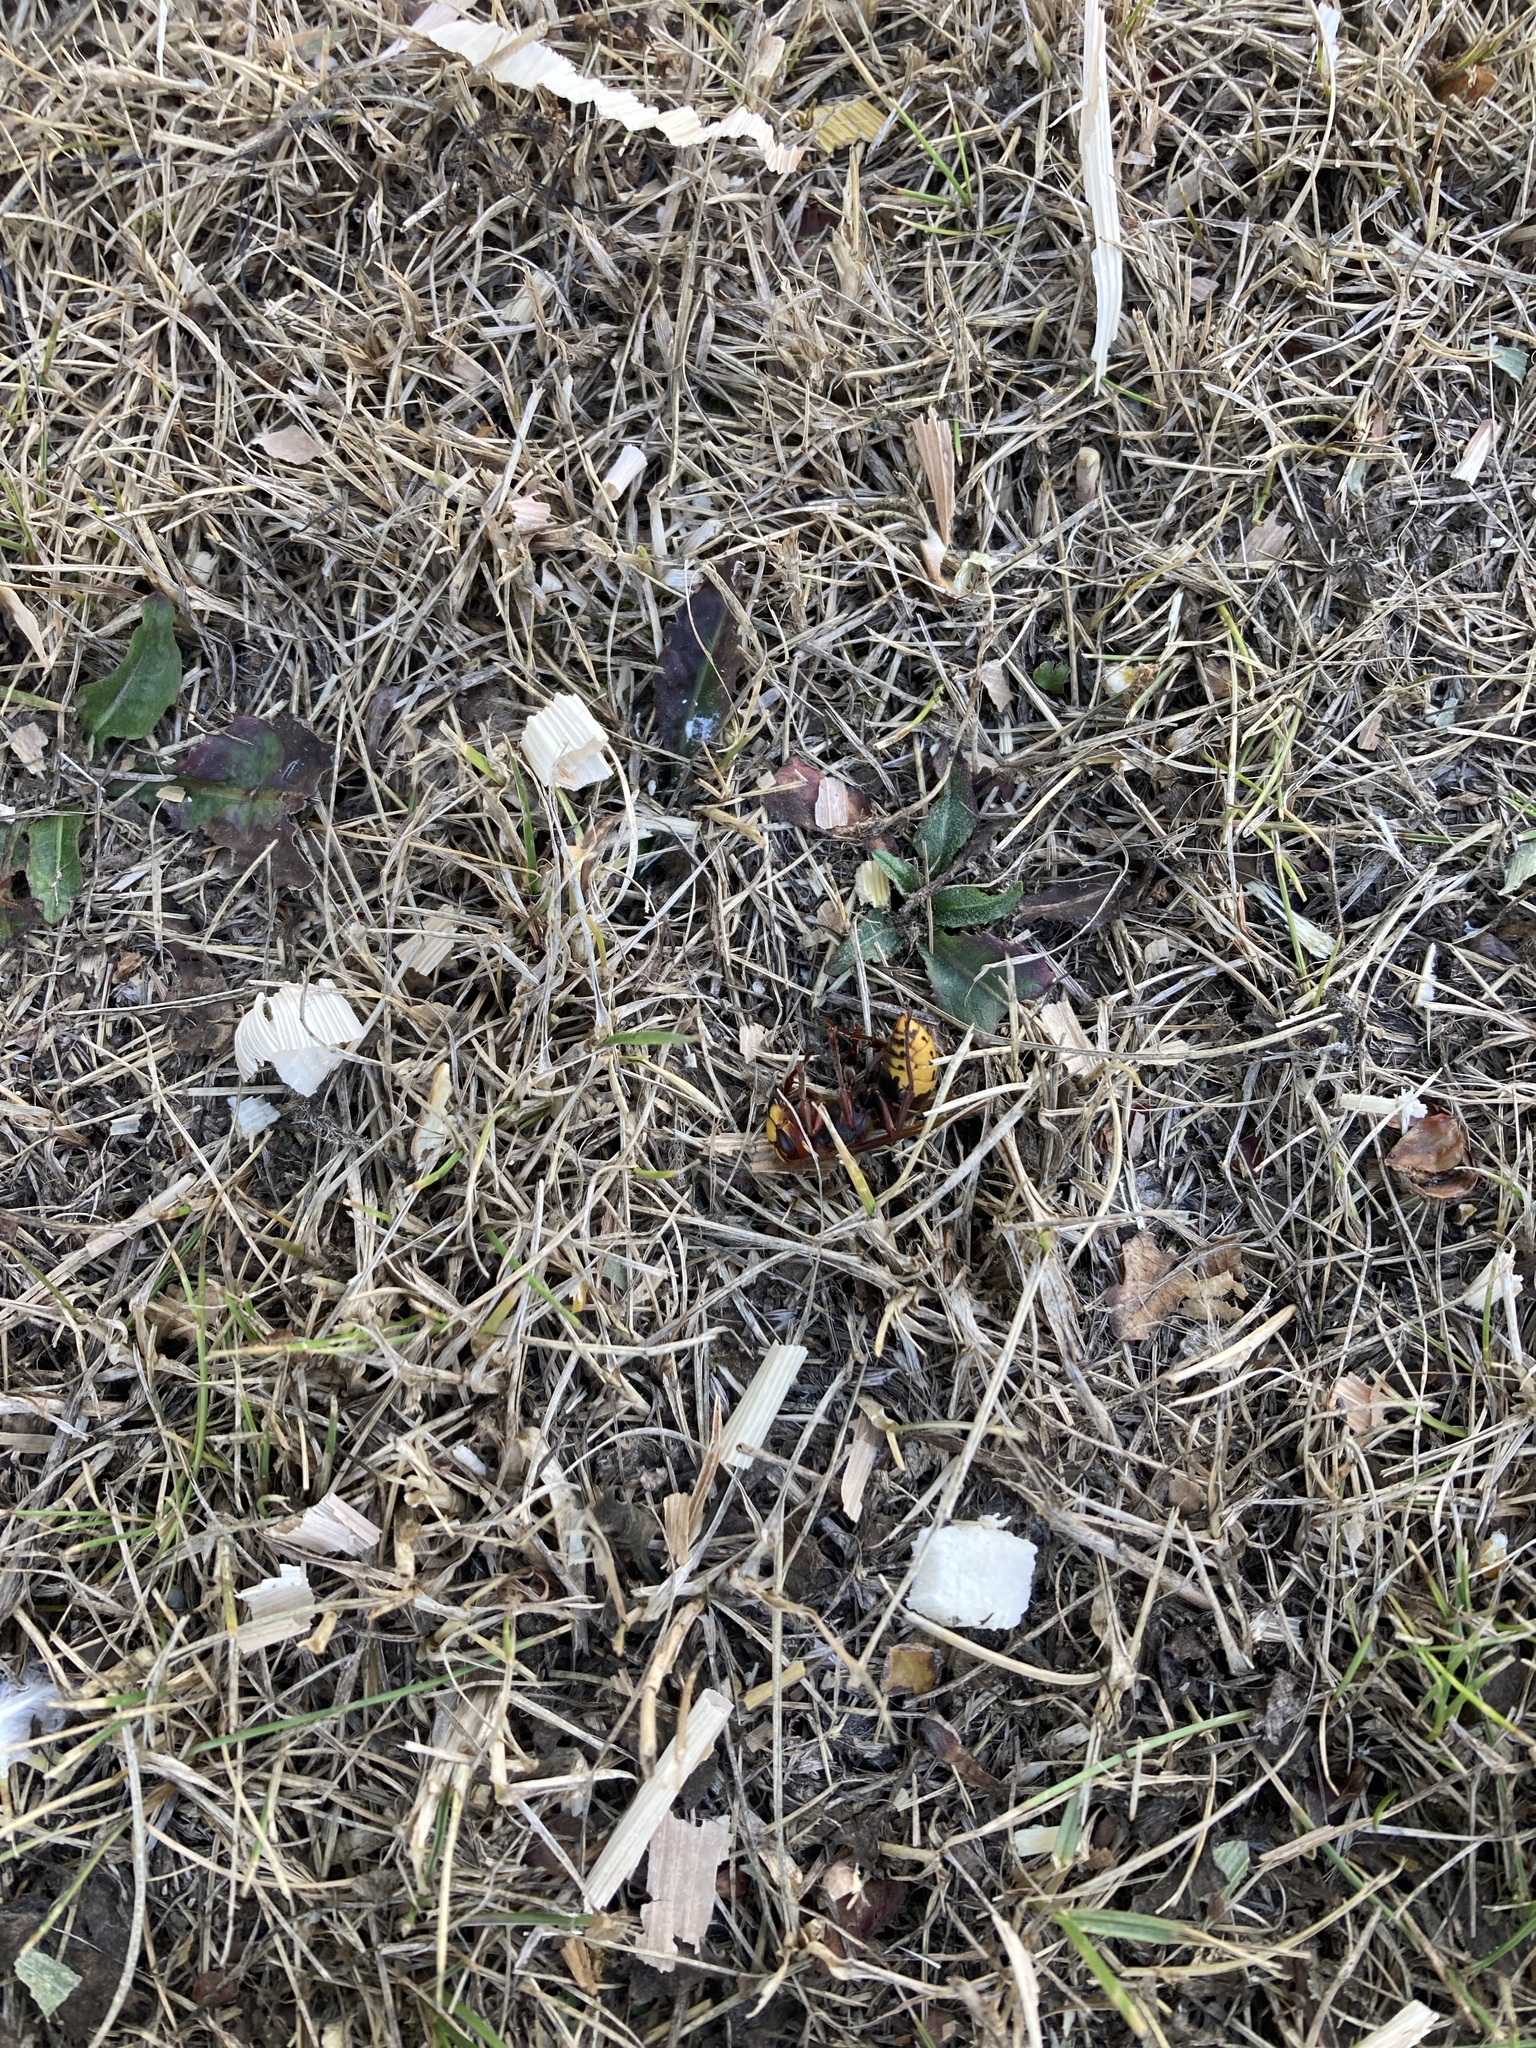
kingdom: Animalia
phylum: Arthropoda
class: Insecta
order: Hymenoptera
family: Vespidae
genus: Vespa
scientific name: Vespa crabro
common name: Hornet
